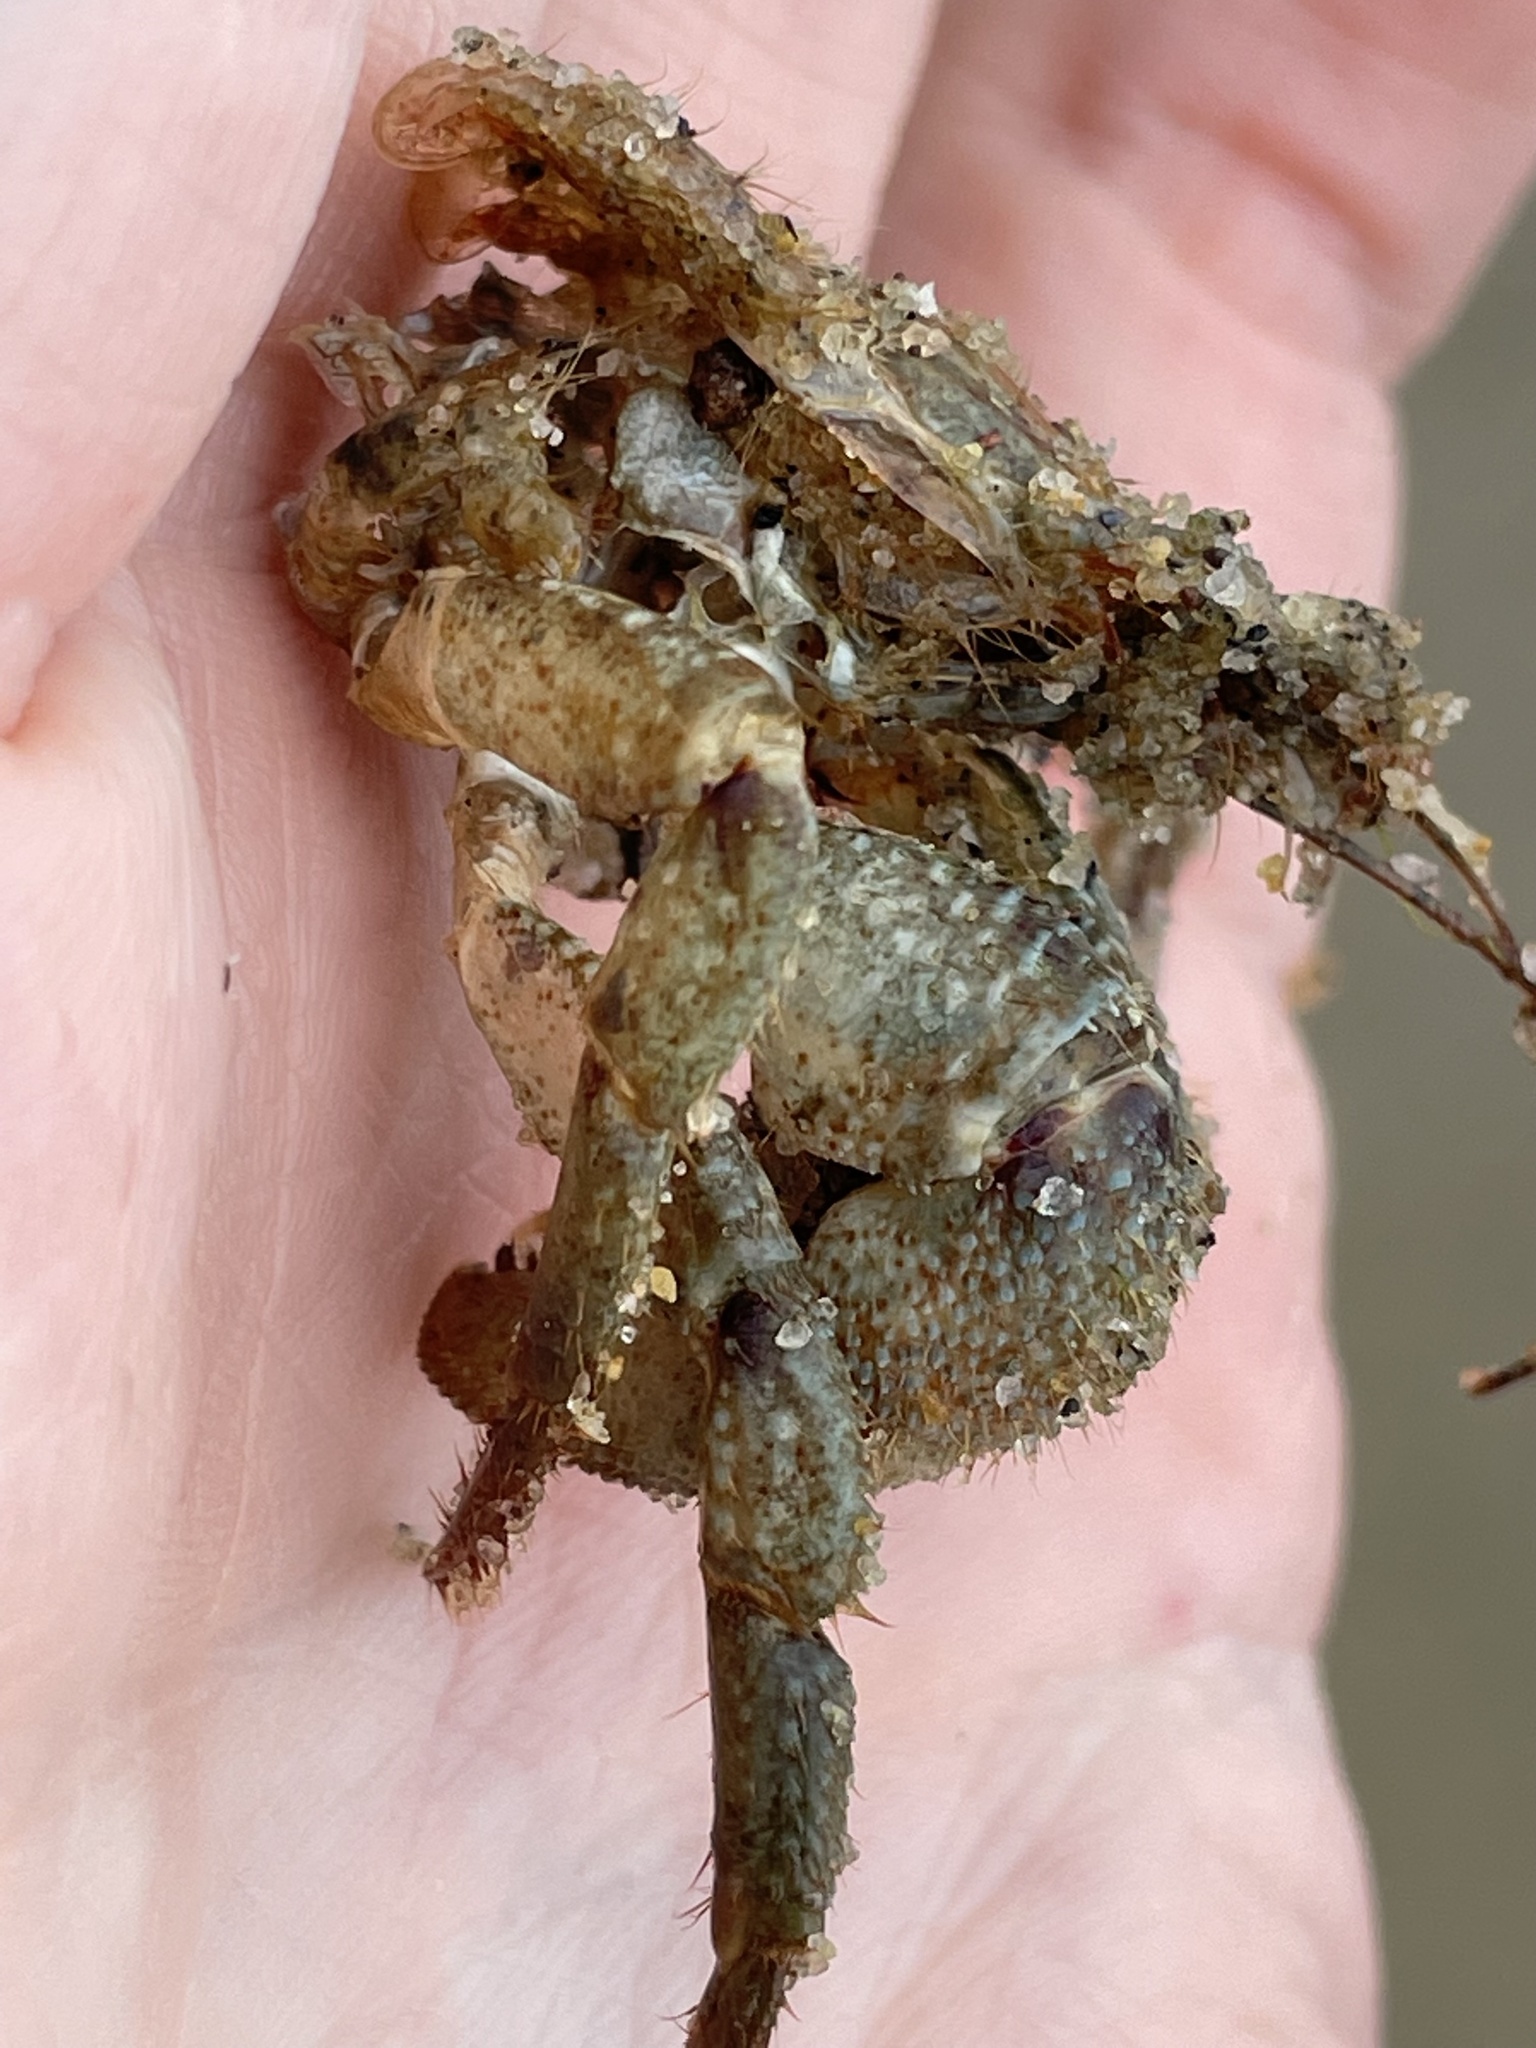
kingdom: Animalia
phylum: Arthropoda
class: Malacostraca
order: Decapoda
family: Paguridae
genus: Pagurus
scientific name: Pagurus pollicaris
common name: Flatclaw hermit
